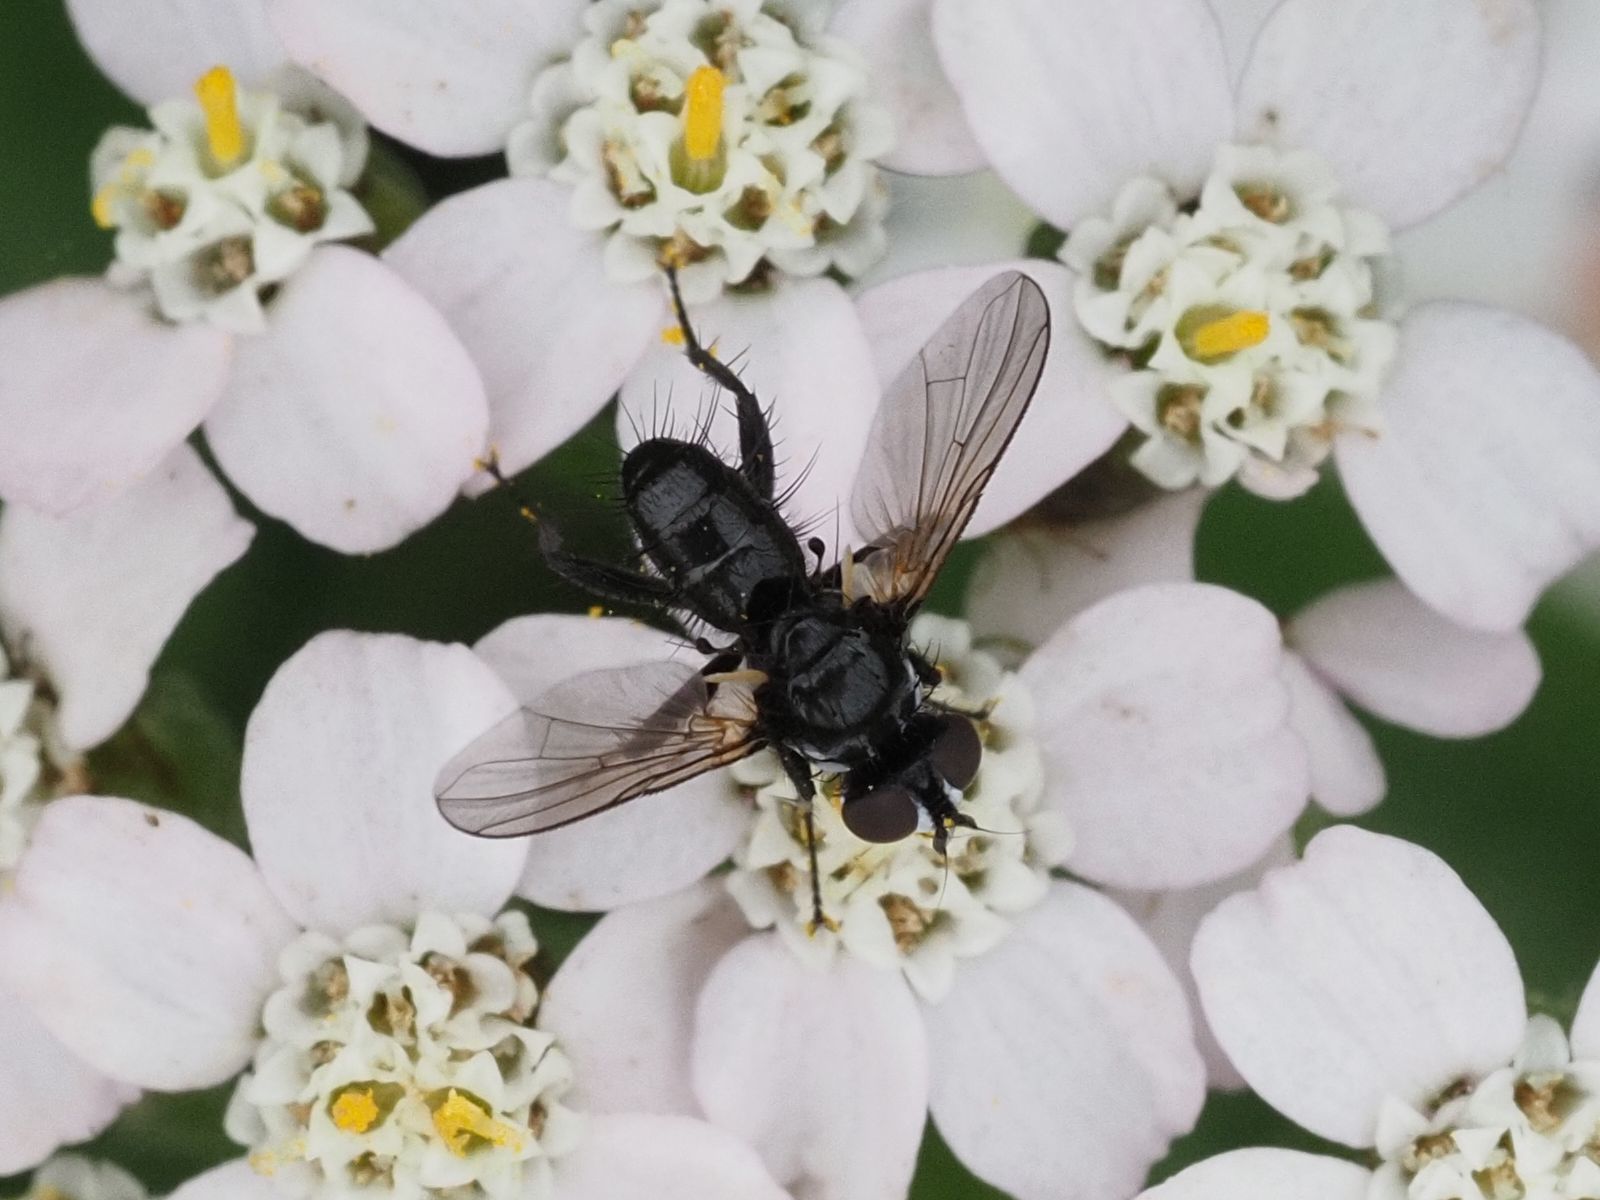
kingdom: Animalia
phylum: Arthropoda
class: Insecta
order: Diptera
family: Tachinidae
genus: Phania
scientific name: Phania funesta
